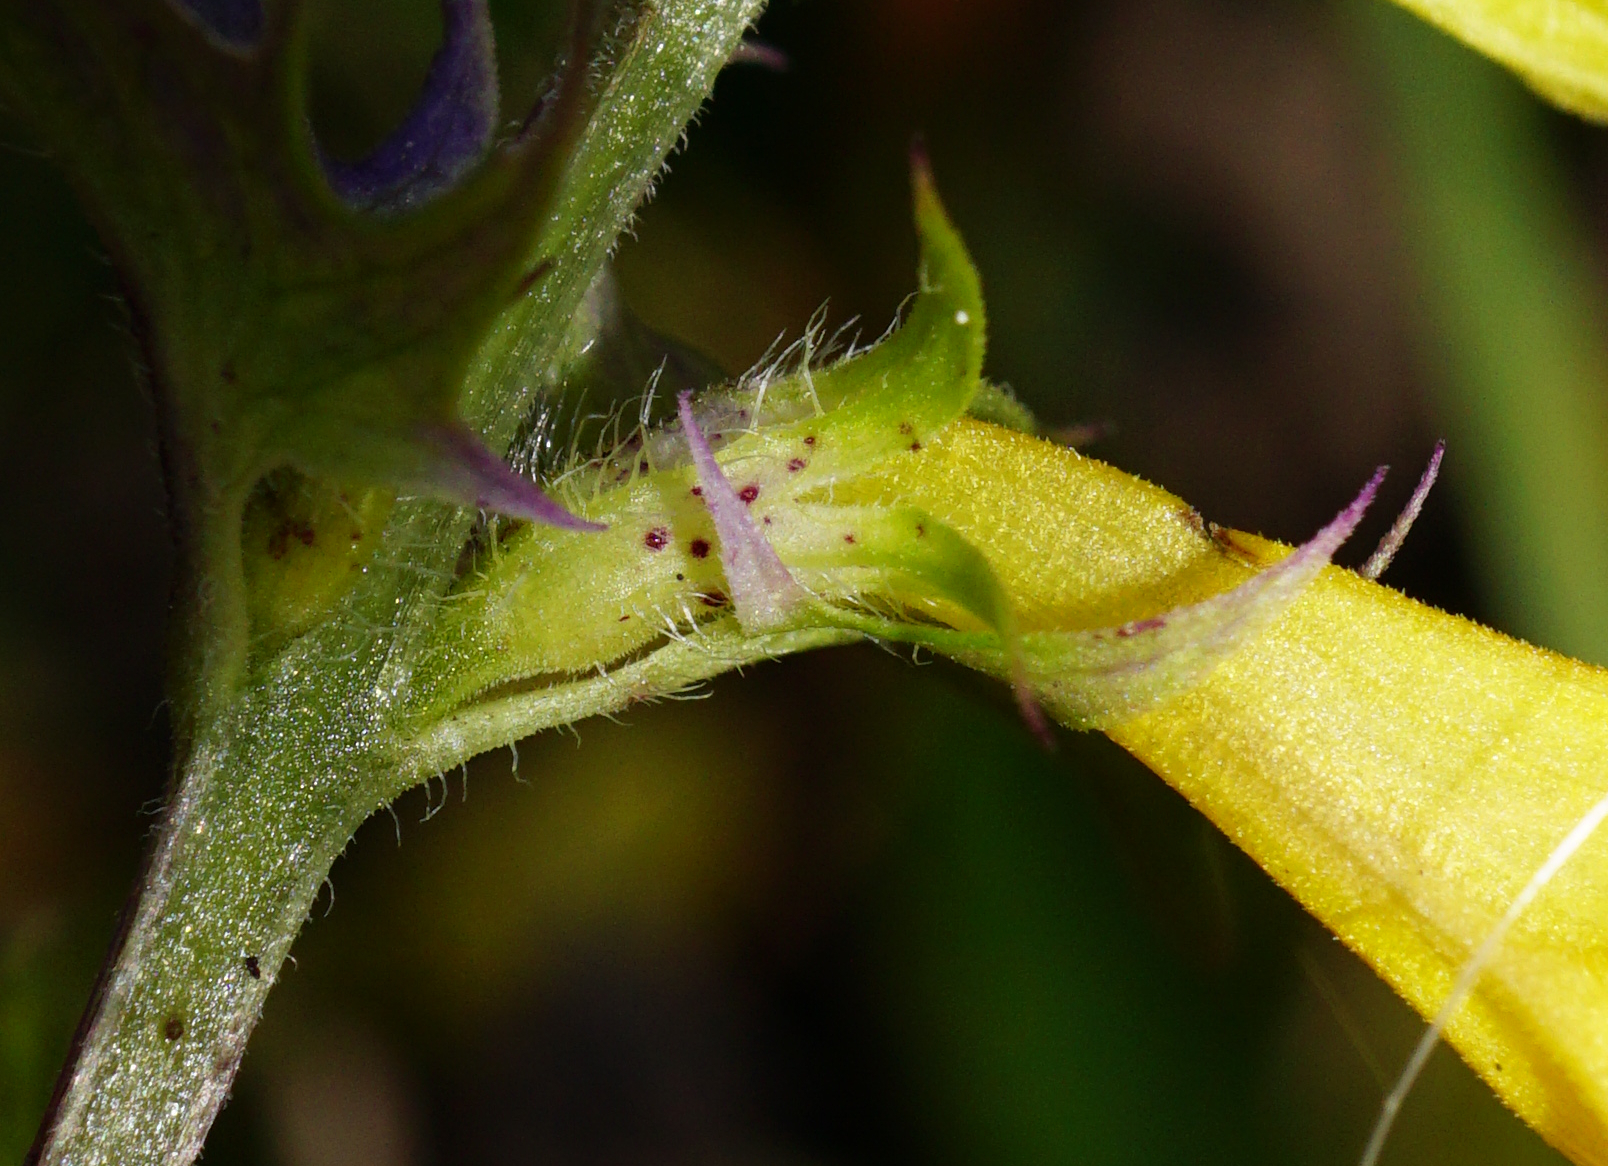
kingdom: Plantae
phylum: Tracheophyta
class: Magnoliopsida
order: Lamiales
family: Orobanchaceae
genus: Melampyrum
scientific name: Melampyrum subalpinum
